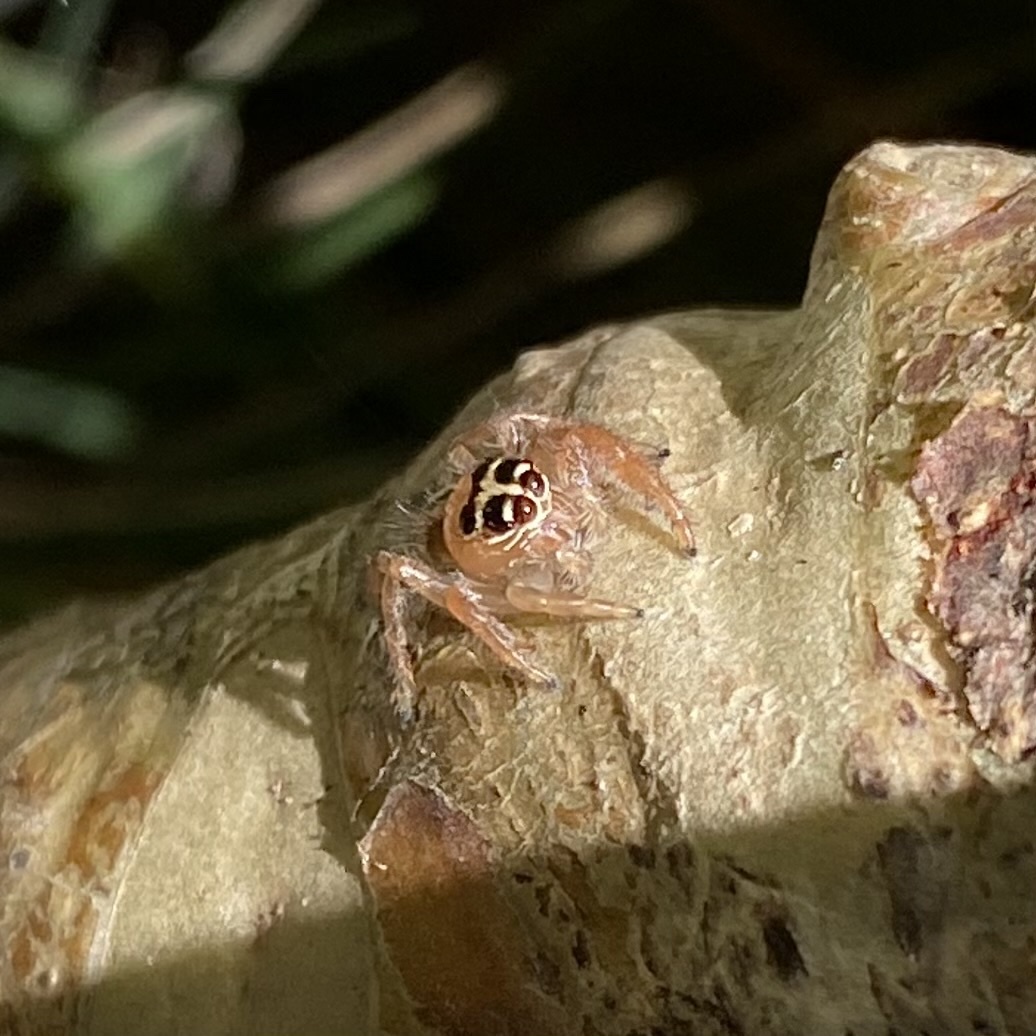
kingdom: Animalia
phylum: Arthropoda
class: Arachnida
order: Araneae
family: Salticidae
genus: Thyene
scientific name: Thyene inflata
